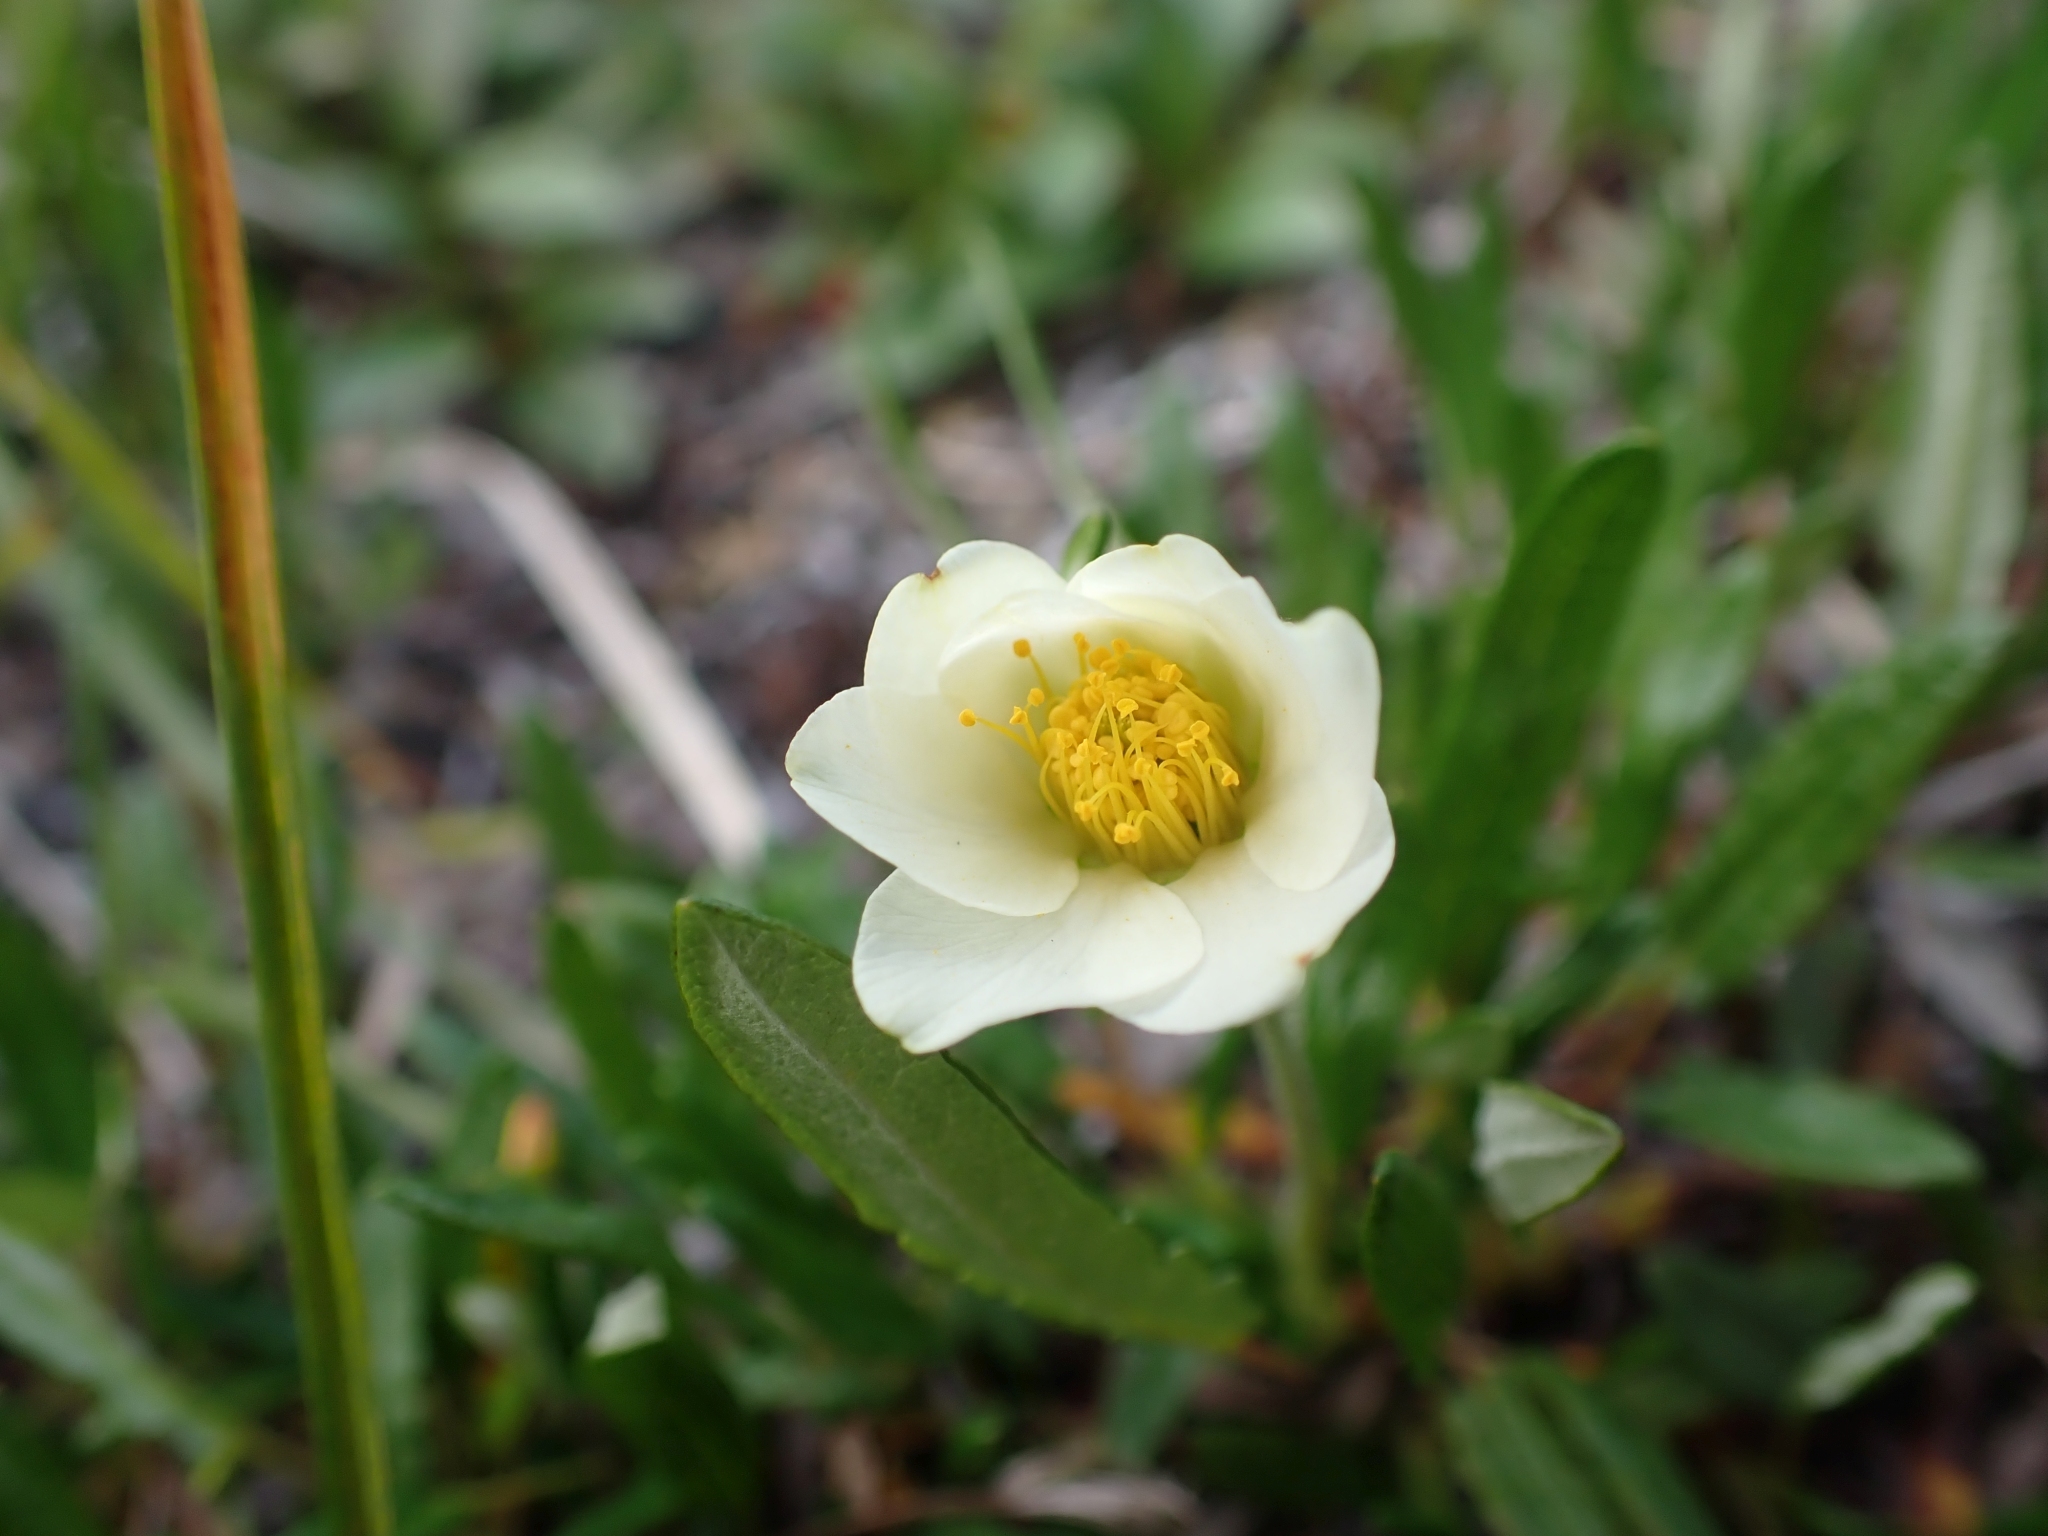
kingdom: Plantae
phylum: Tracheophyta
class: Magnoliopsida
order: Rosales
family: Rosaceae
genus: Dryas
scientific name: Dryas integrifolia
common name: Entire-leaved mountain avens
